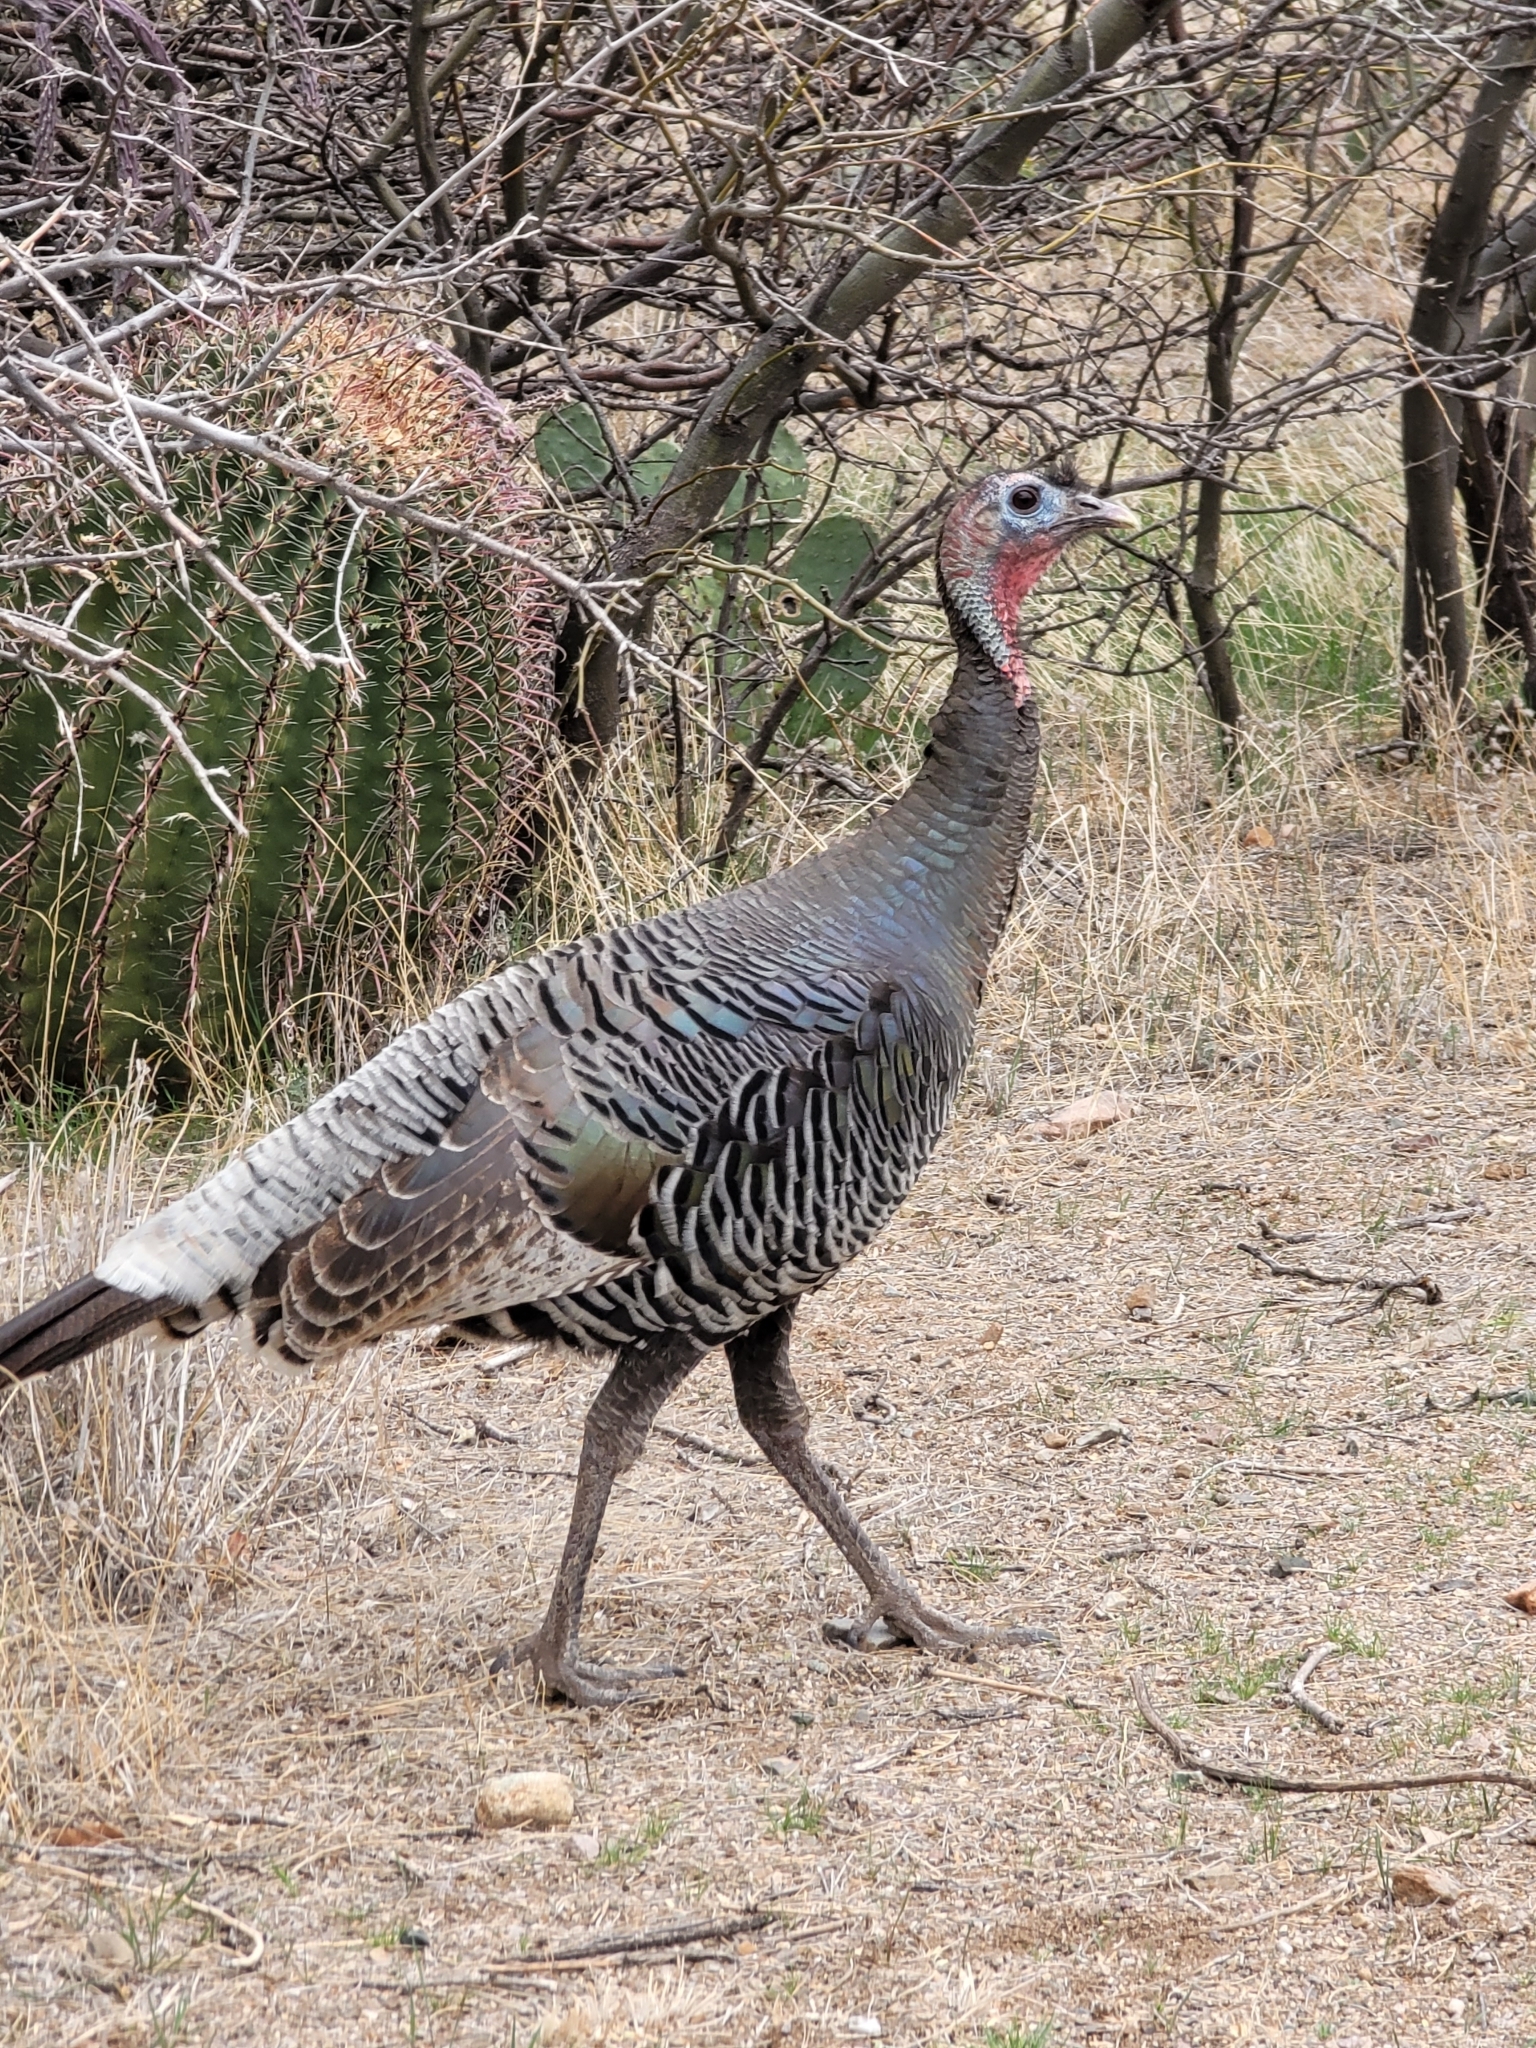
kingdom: Animalia
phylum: Chordata
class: Aves
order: Galliformes
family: Phasianidae
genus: Meleagris
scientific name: Meleagris gallopavo
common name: Wild turkey
